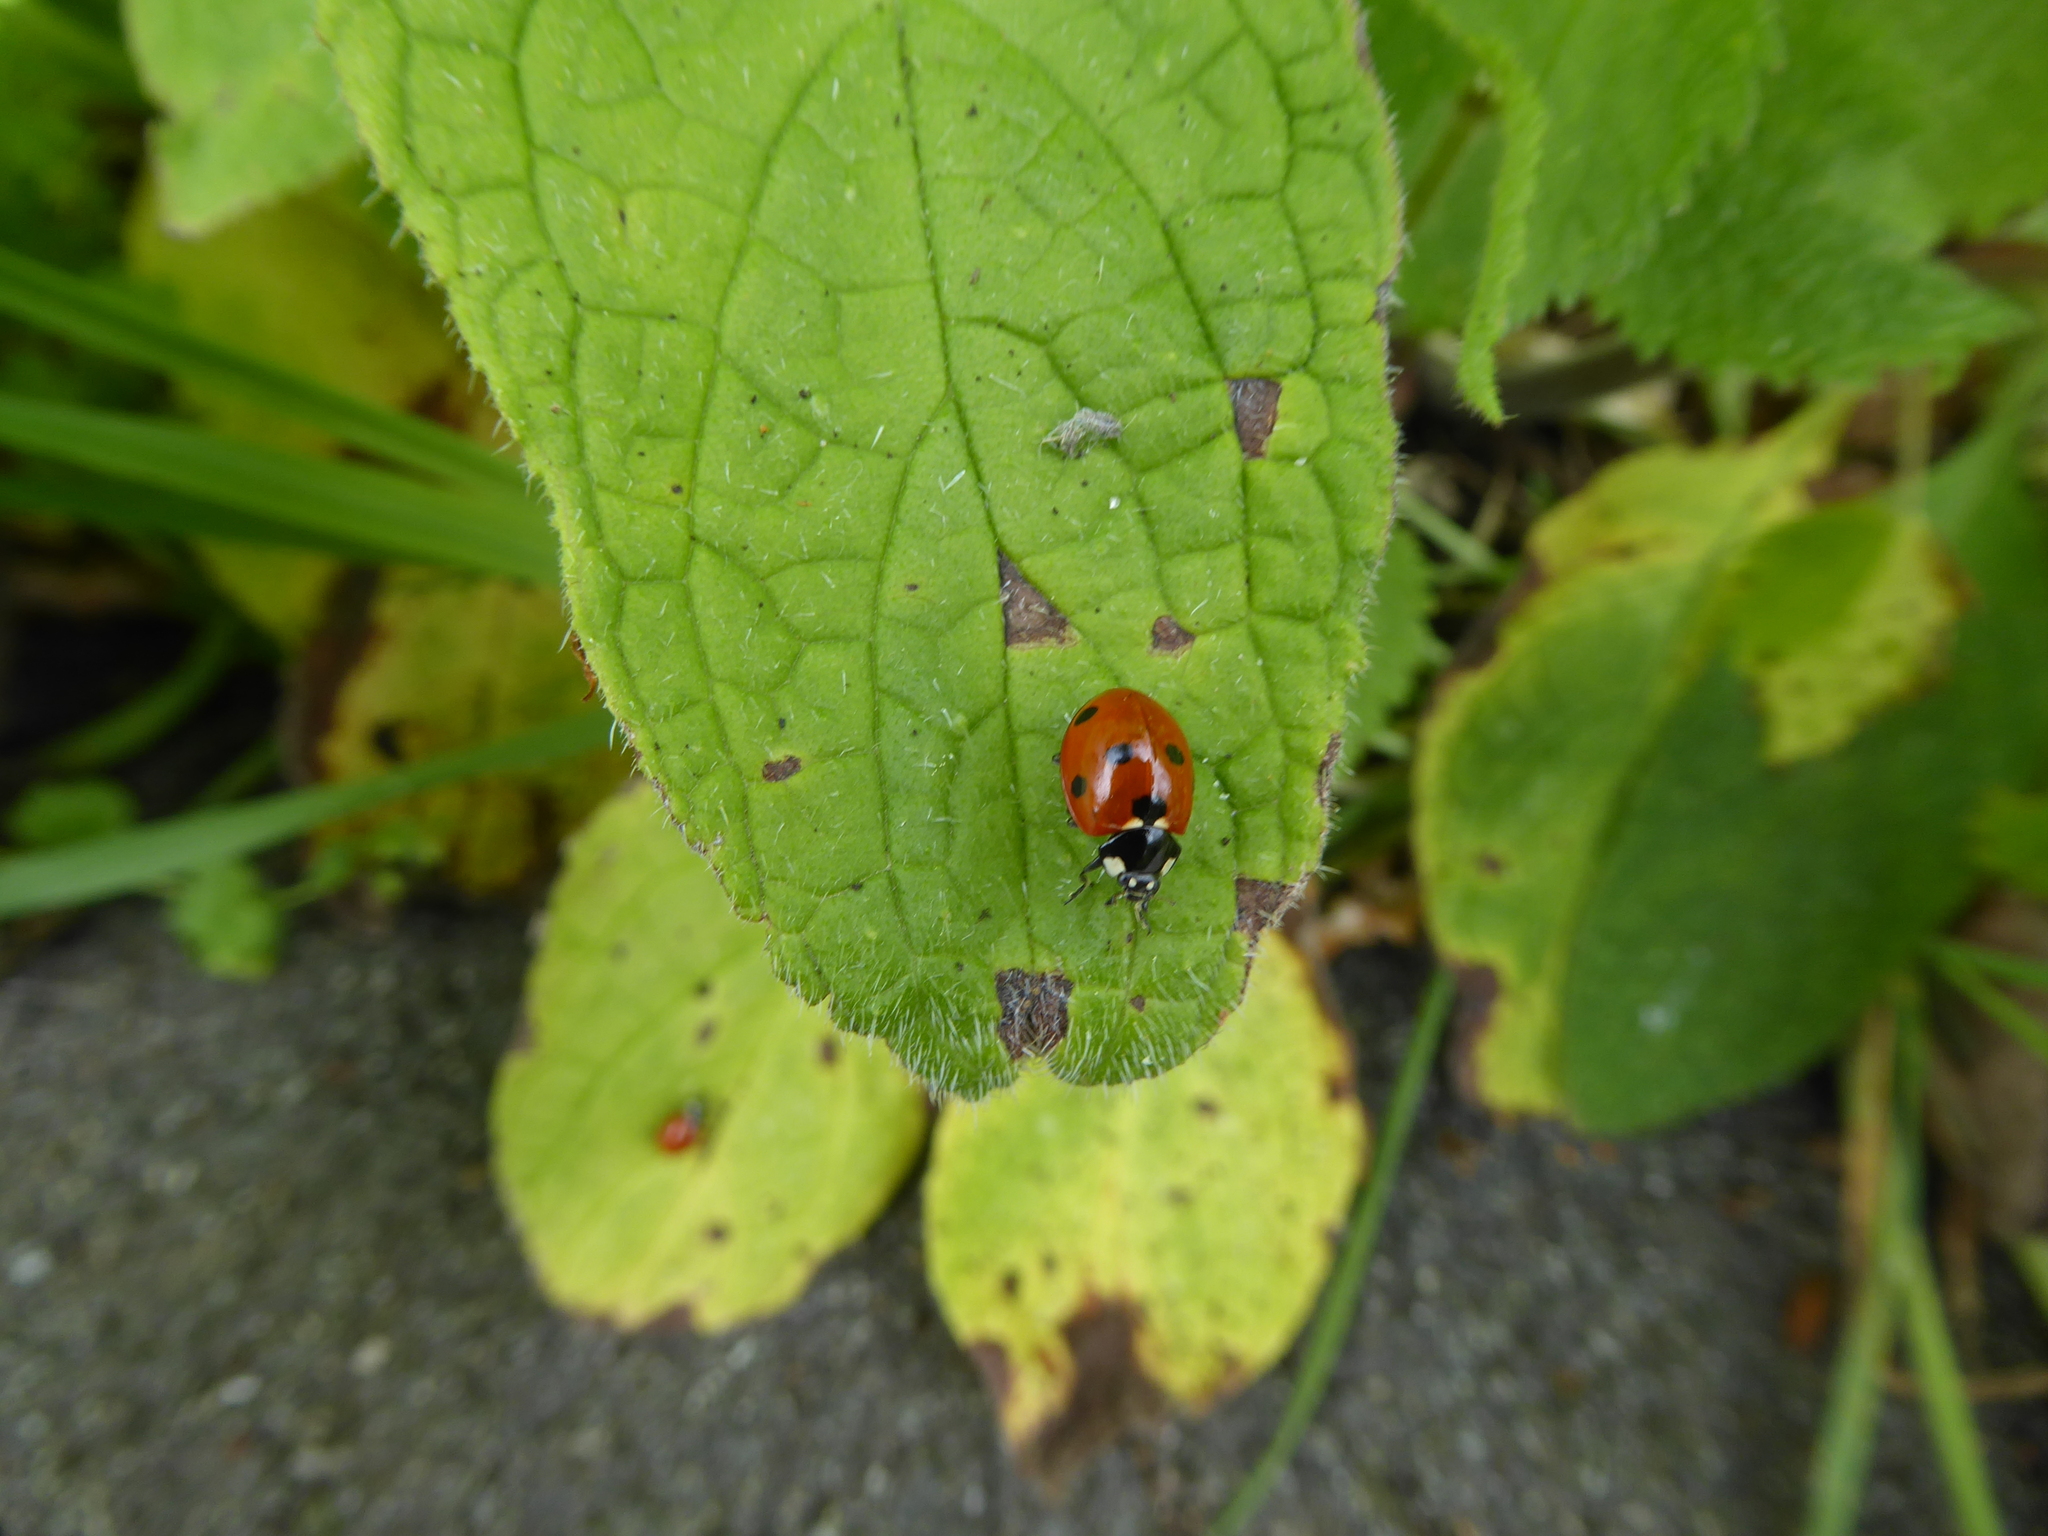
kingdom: Animalia
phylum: Arthropoda
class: Insecta
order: Coleoptera
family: Coccinellidae
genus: Coccinella
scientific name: Coccinella septempunctata
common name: Sevenspotted lady beetle
